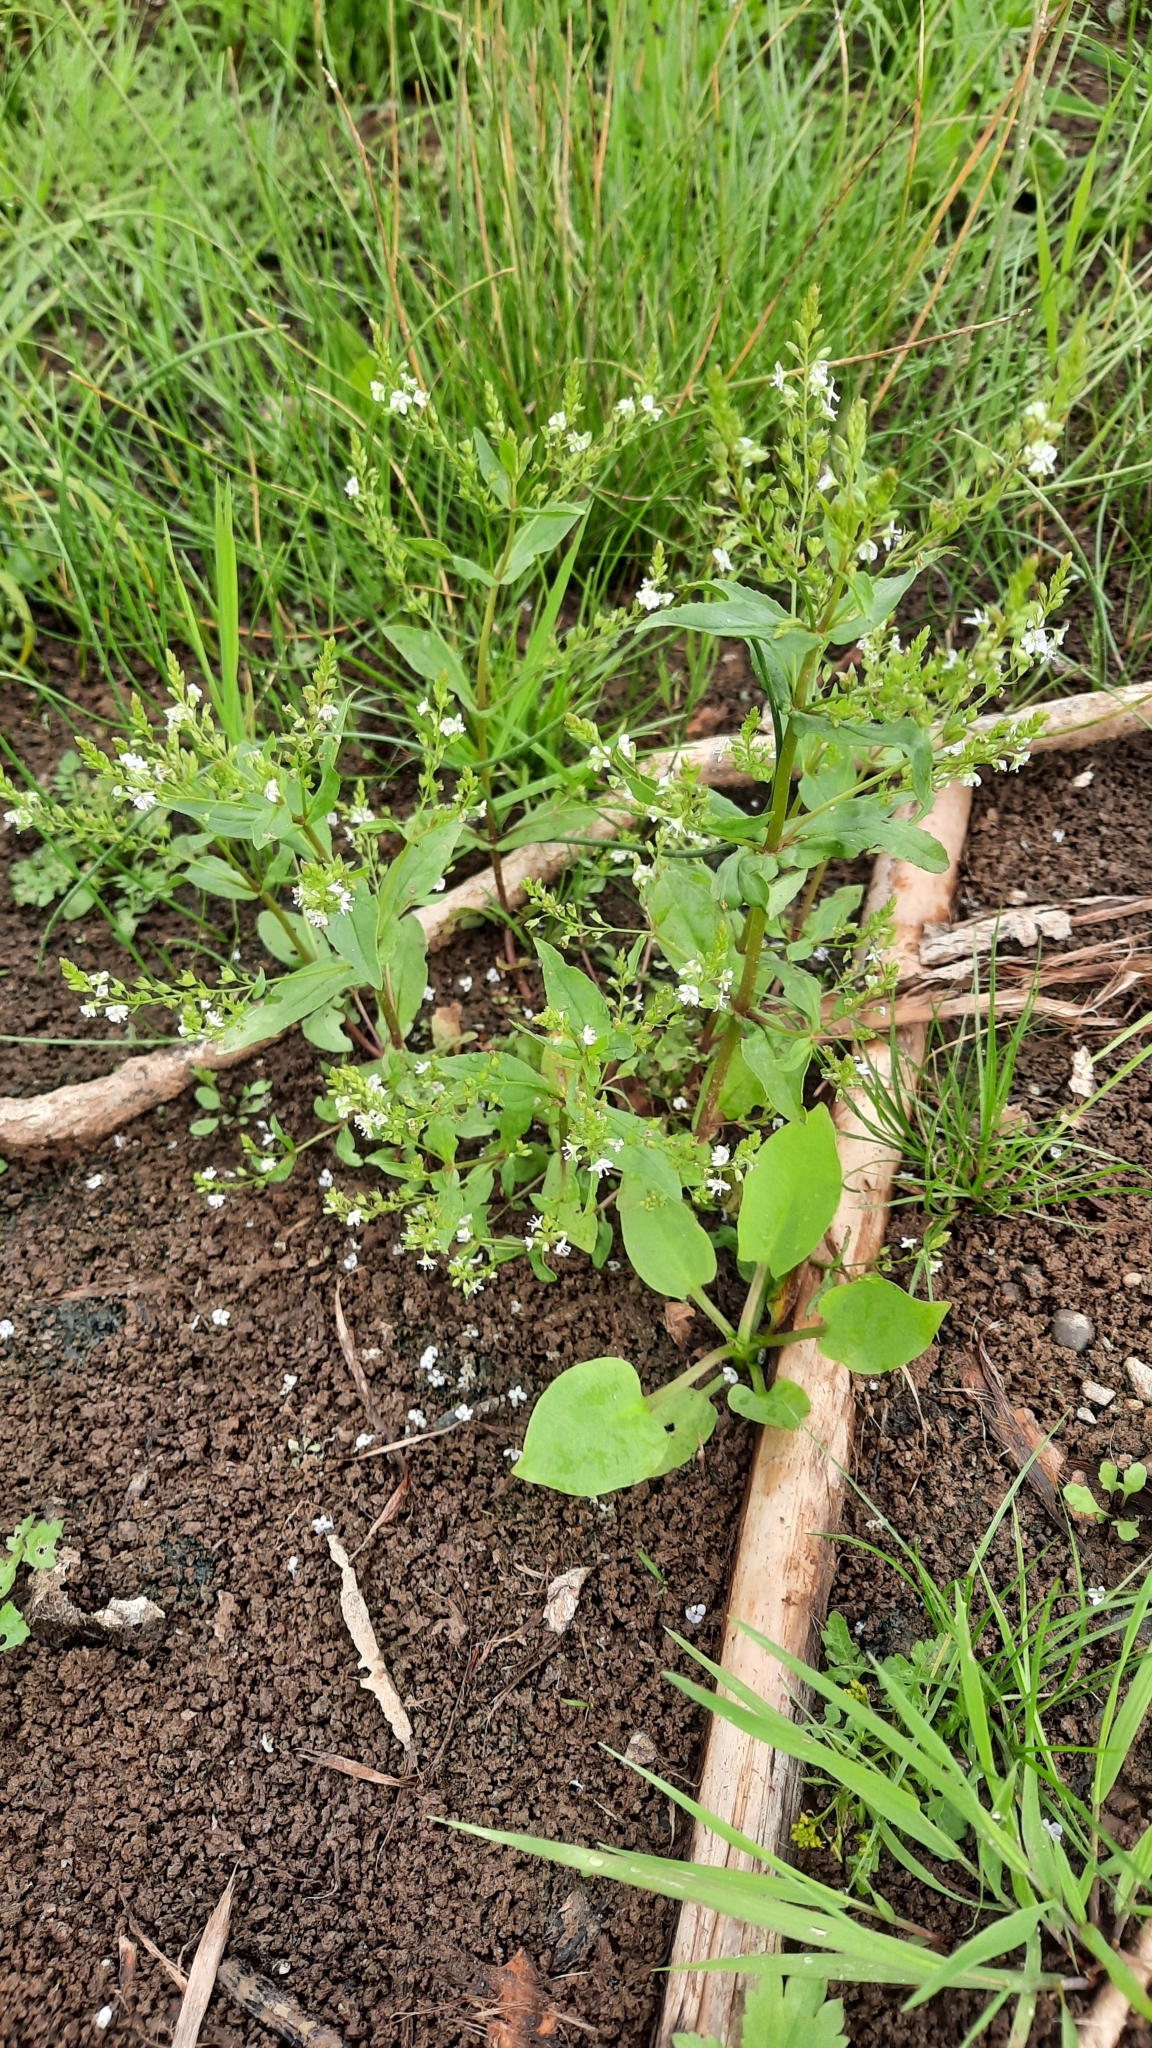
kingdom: Plantae
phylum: Tracheophyta
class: Magnoliopsida
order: Lamiales
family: Plantaginaceae
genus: Veronica
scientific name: Veronica anagallis-aquatica
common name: Water speedwell
